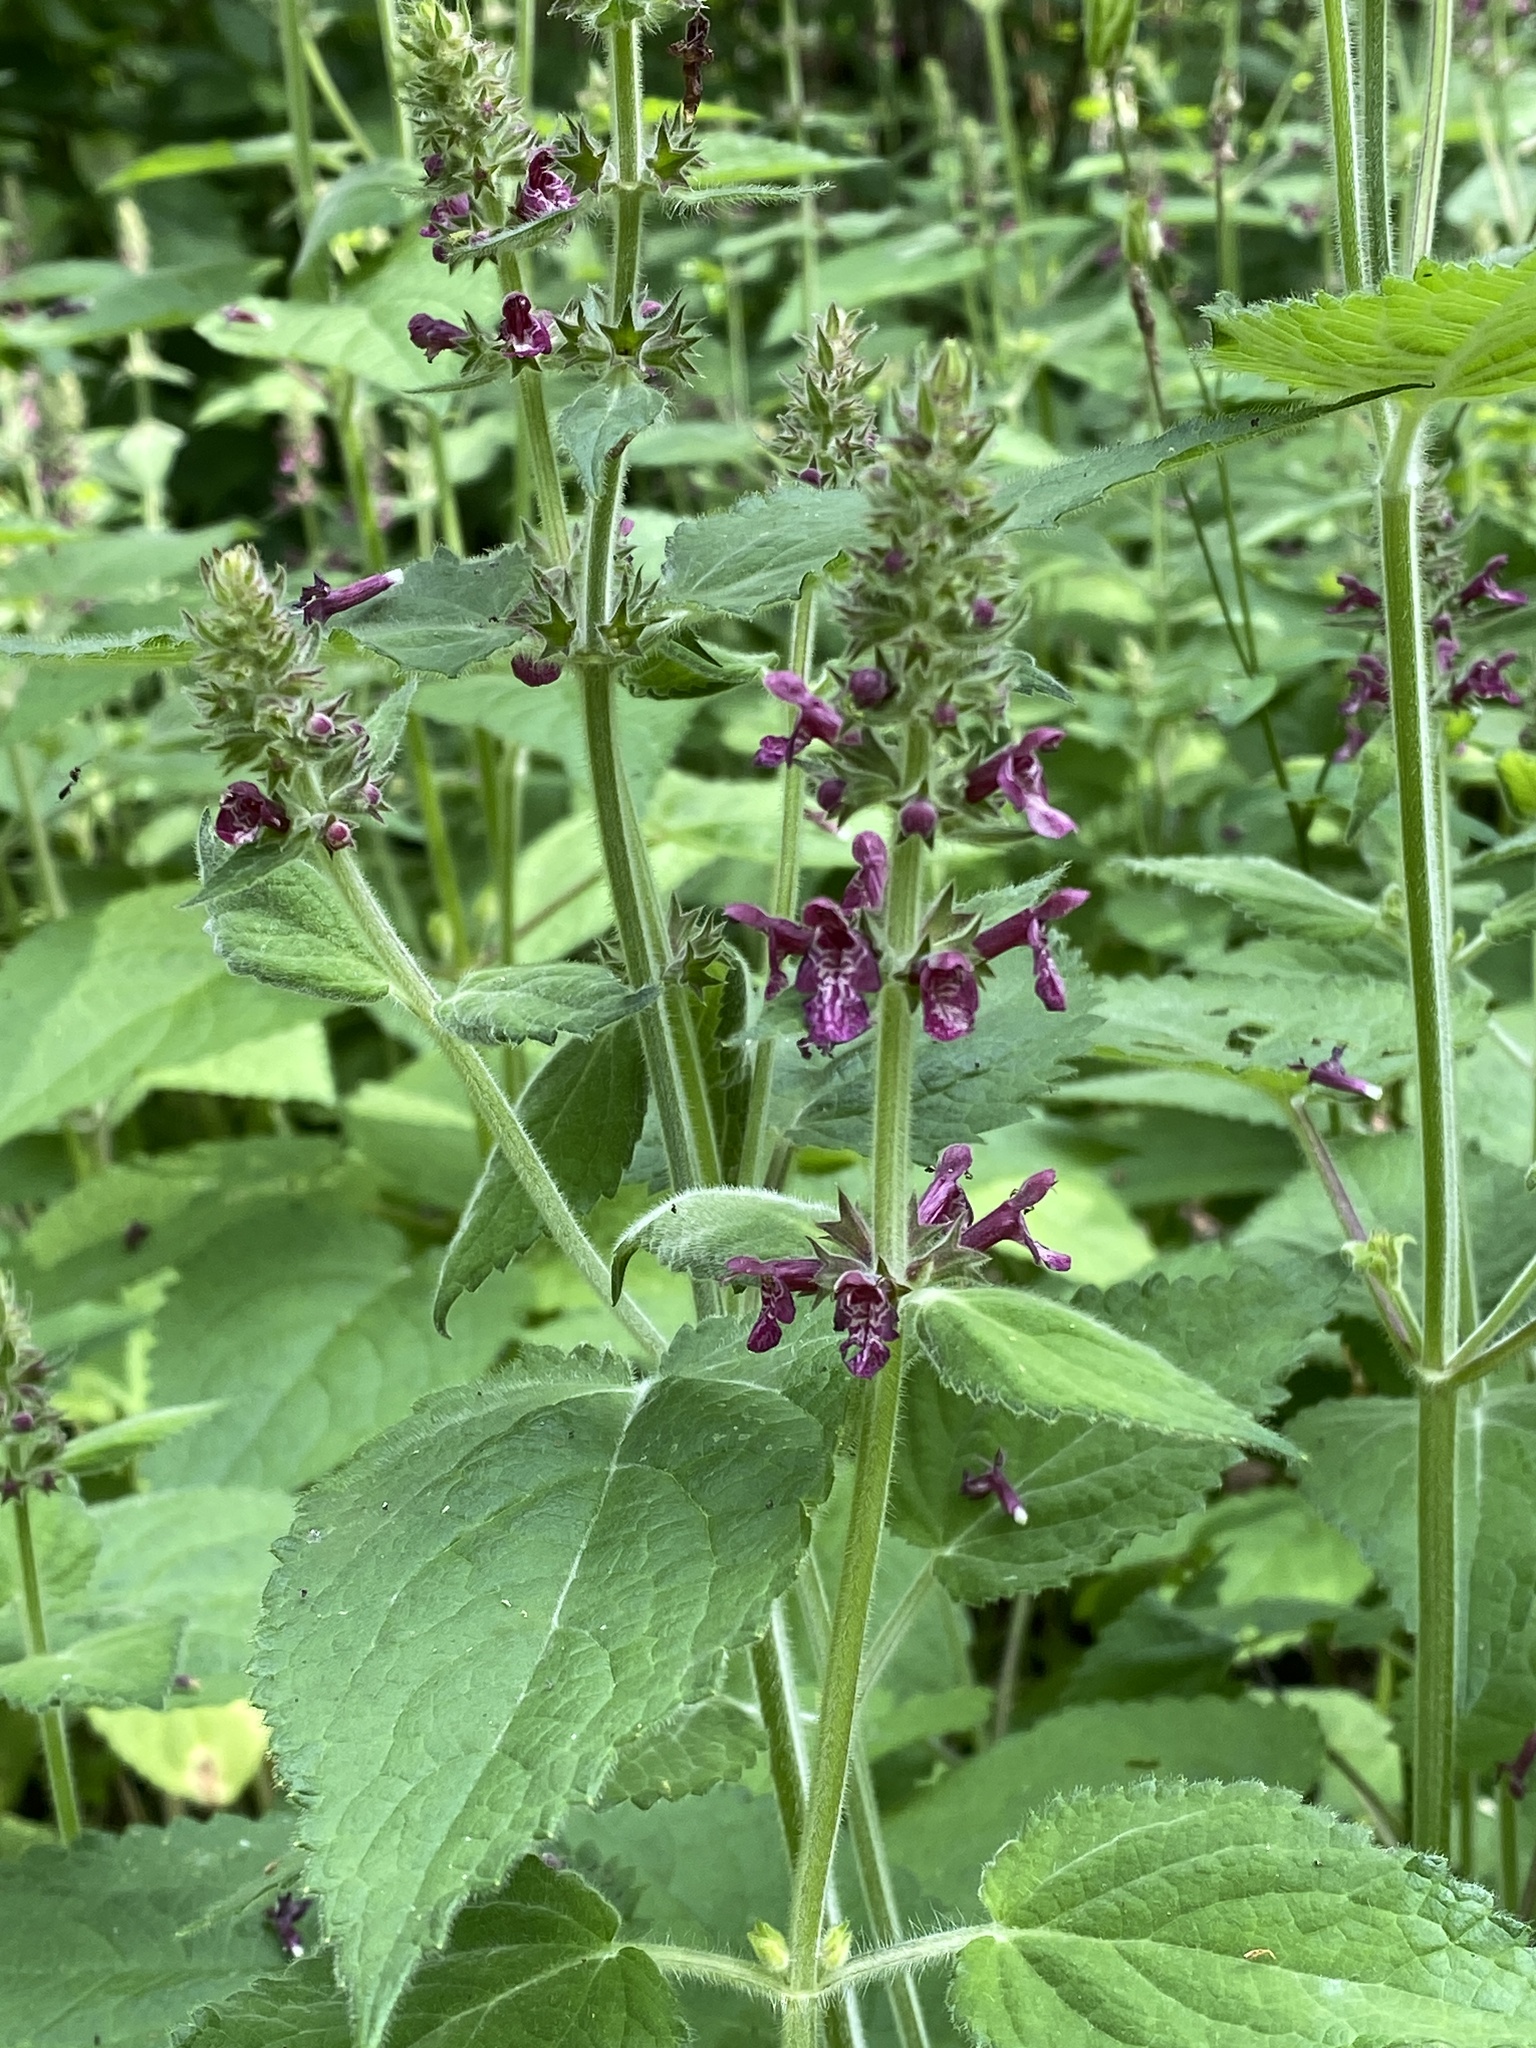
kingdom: Plantae
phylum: Tracheophyta
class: Magnoliopsida
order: Lamiales
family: Lamiaceae
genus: Stachys
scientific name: Stachys sylvatica
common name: Hedge woundwort
